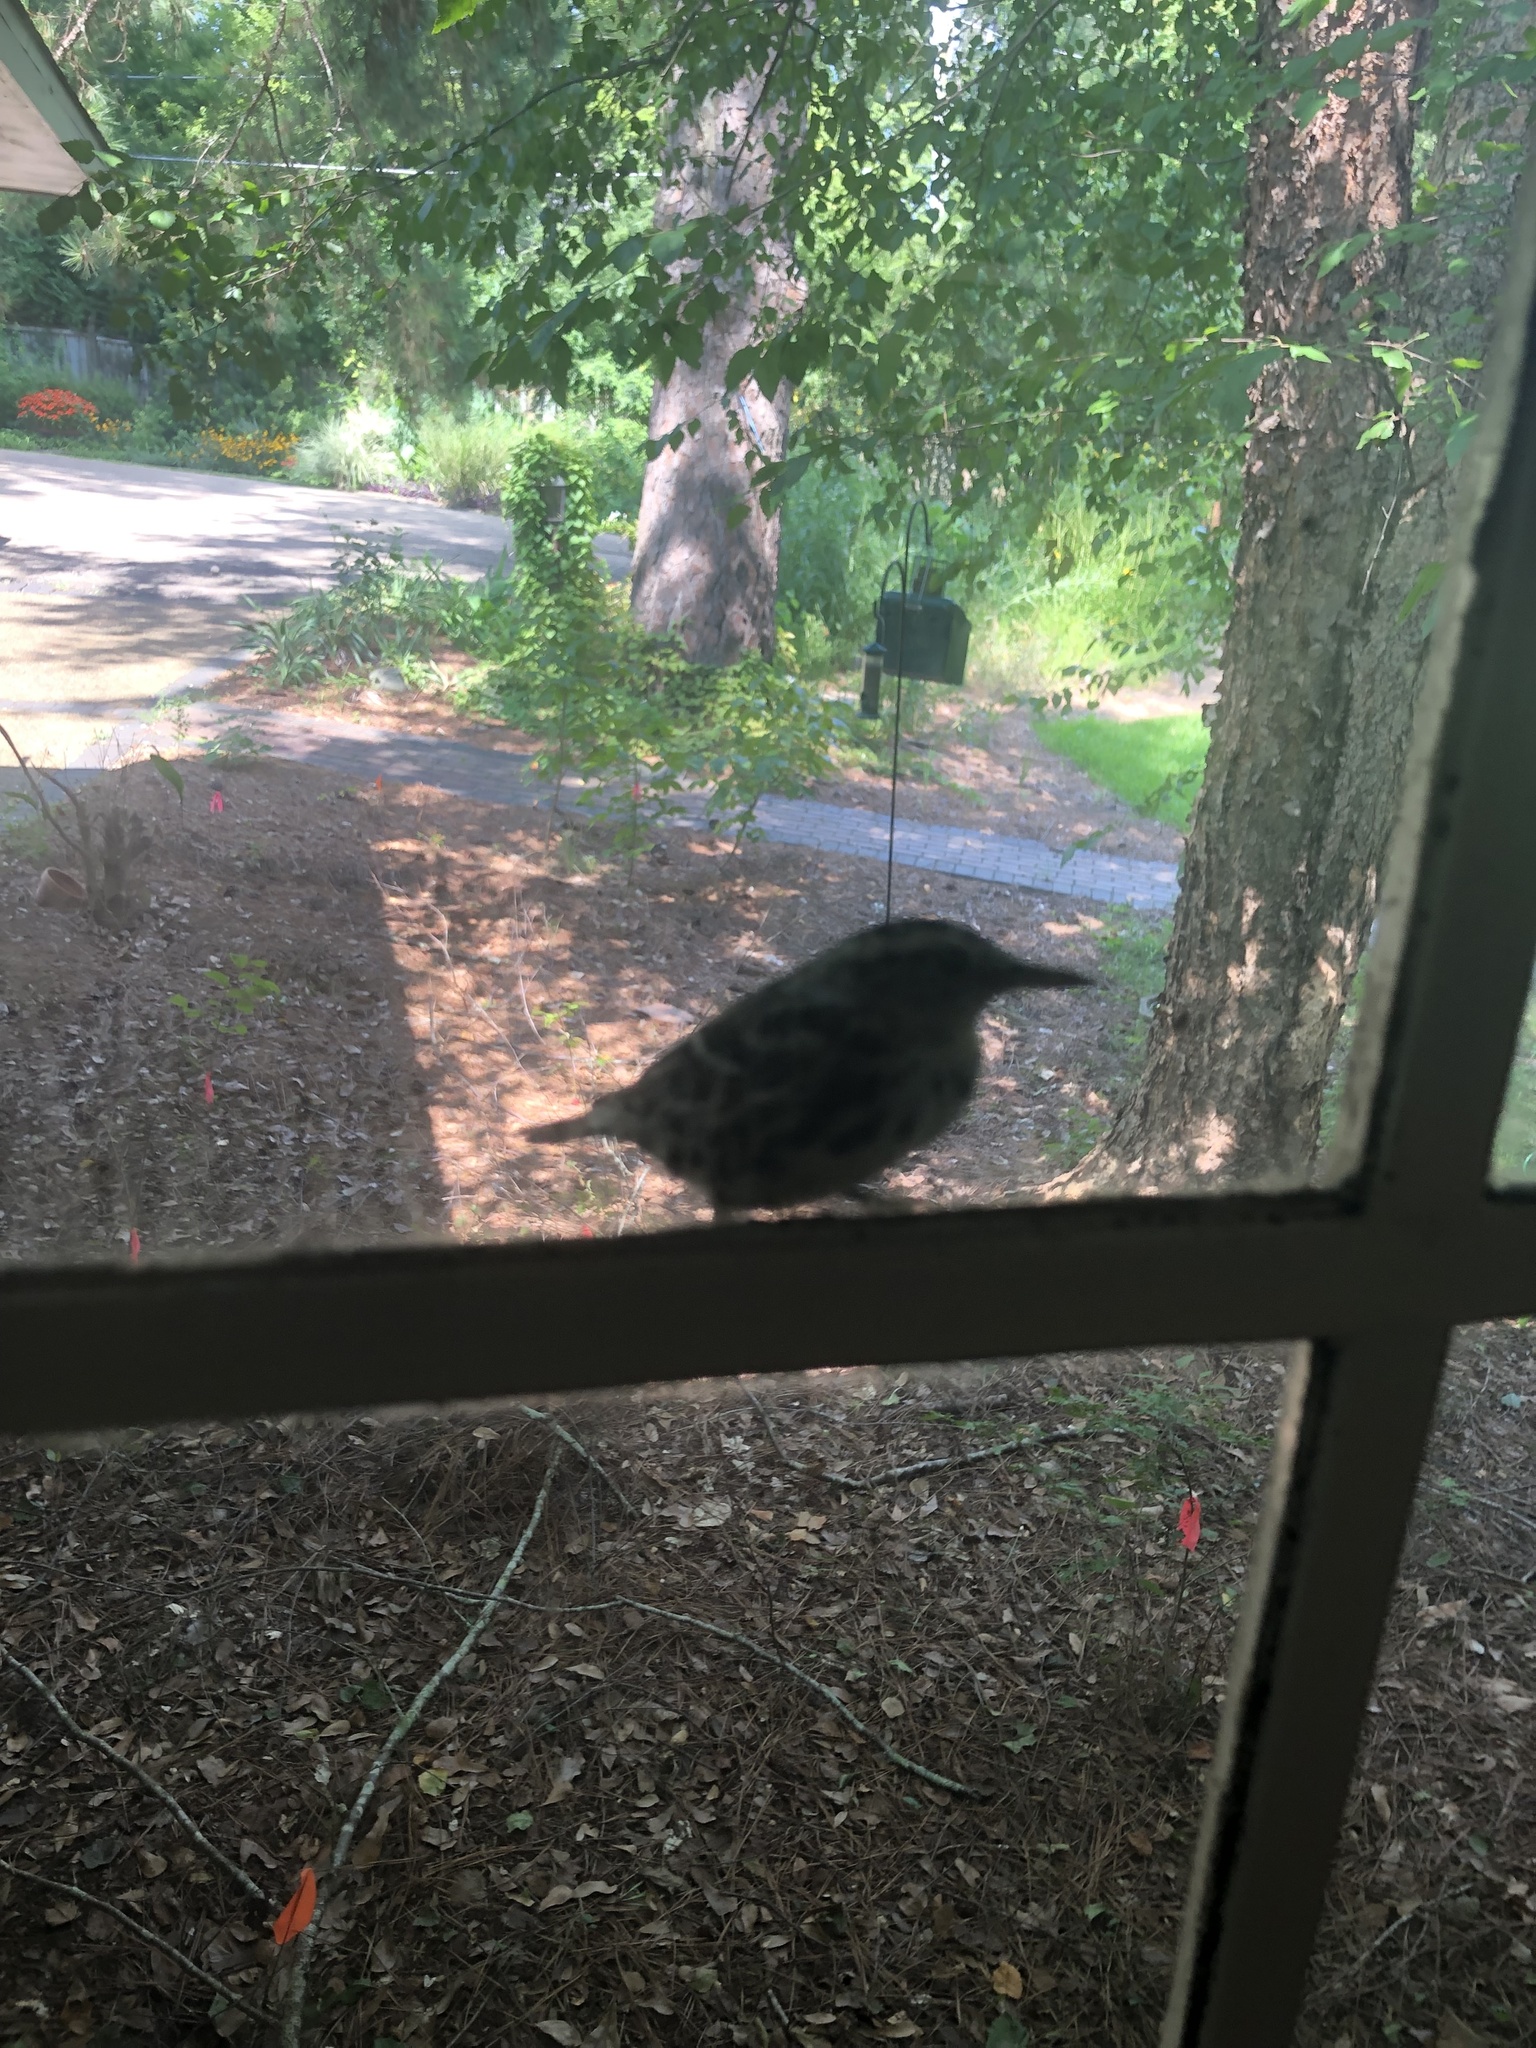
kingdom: Animalia
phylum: Chordata
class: Aves
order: Passeriformes
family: Parulidae
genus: Mniotilta
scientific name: Mniotilta varia
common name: Black-and-white warbler
